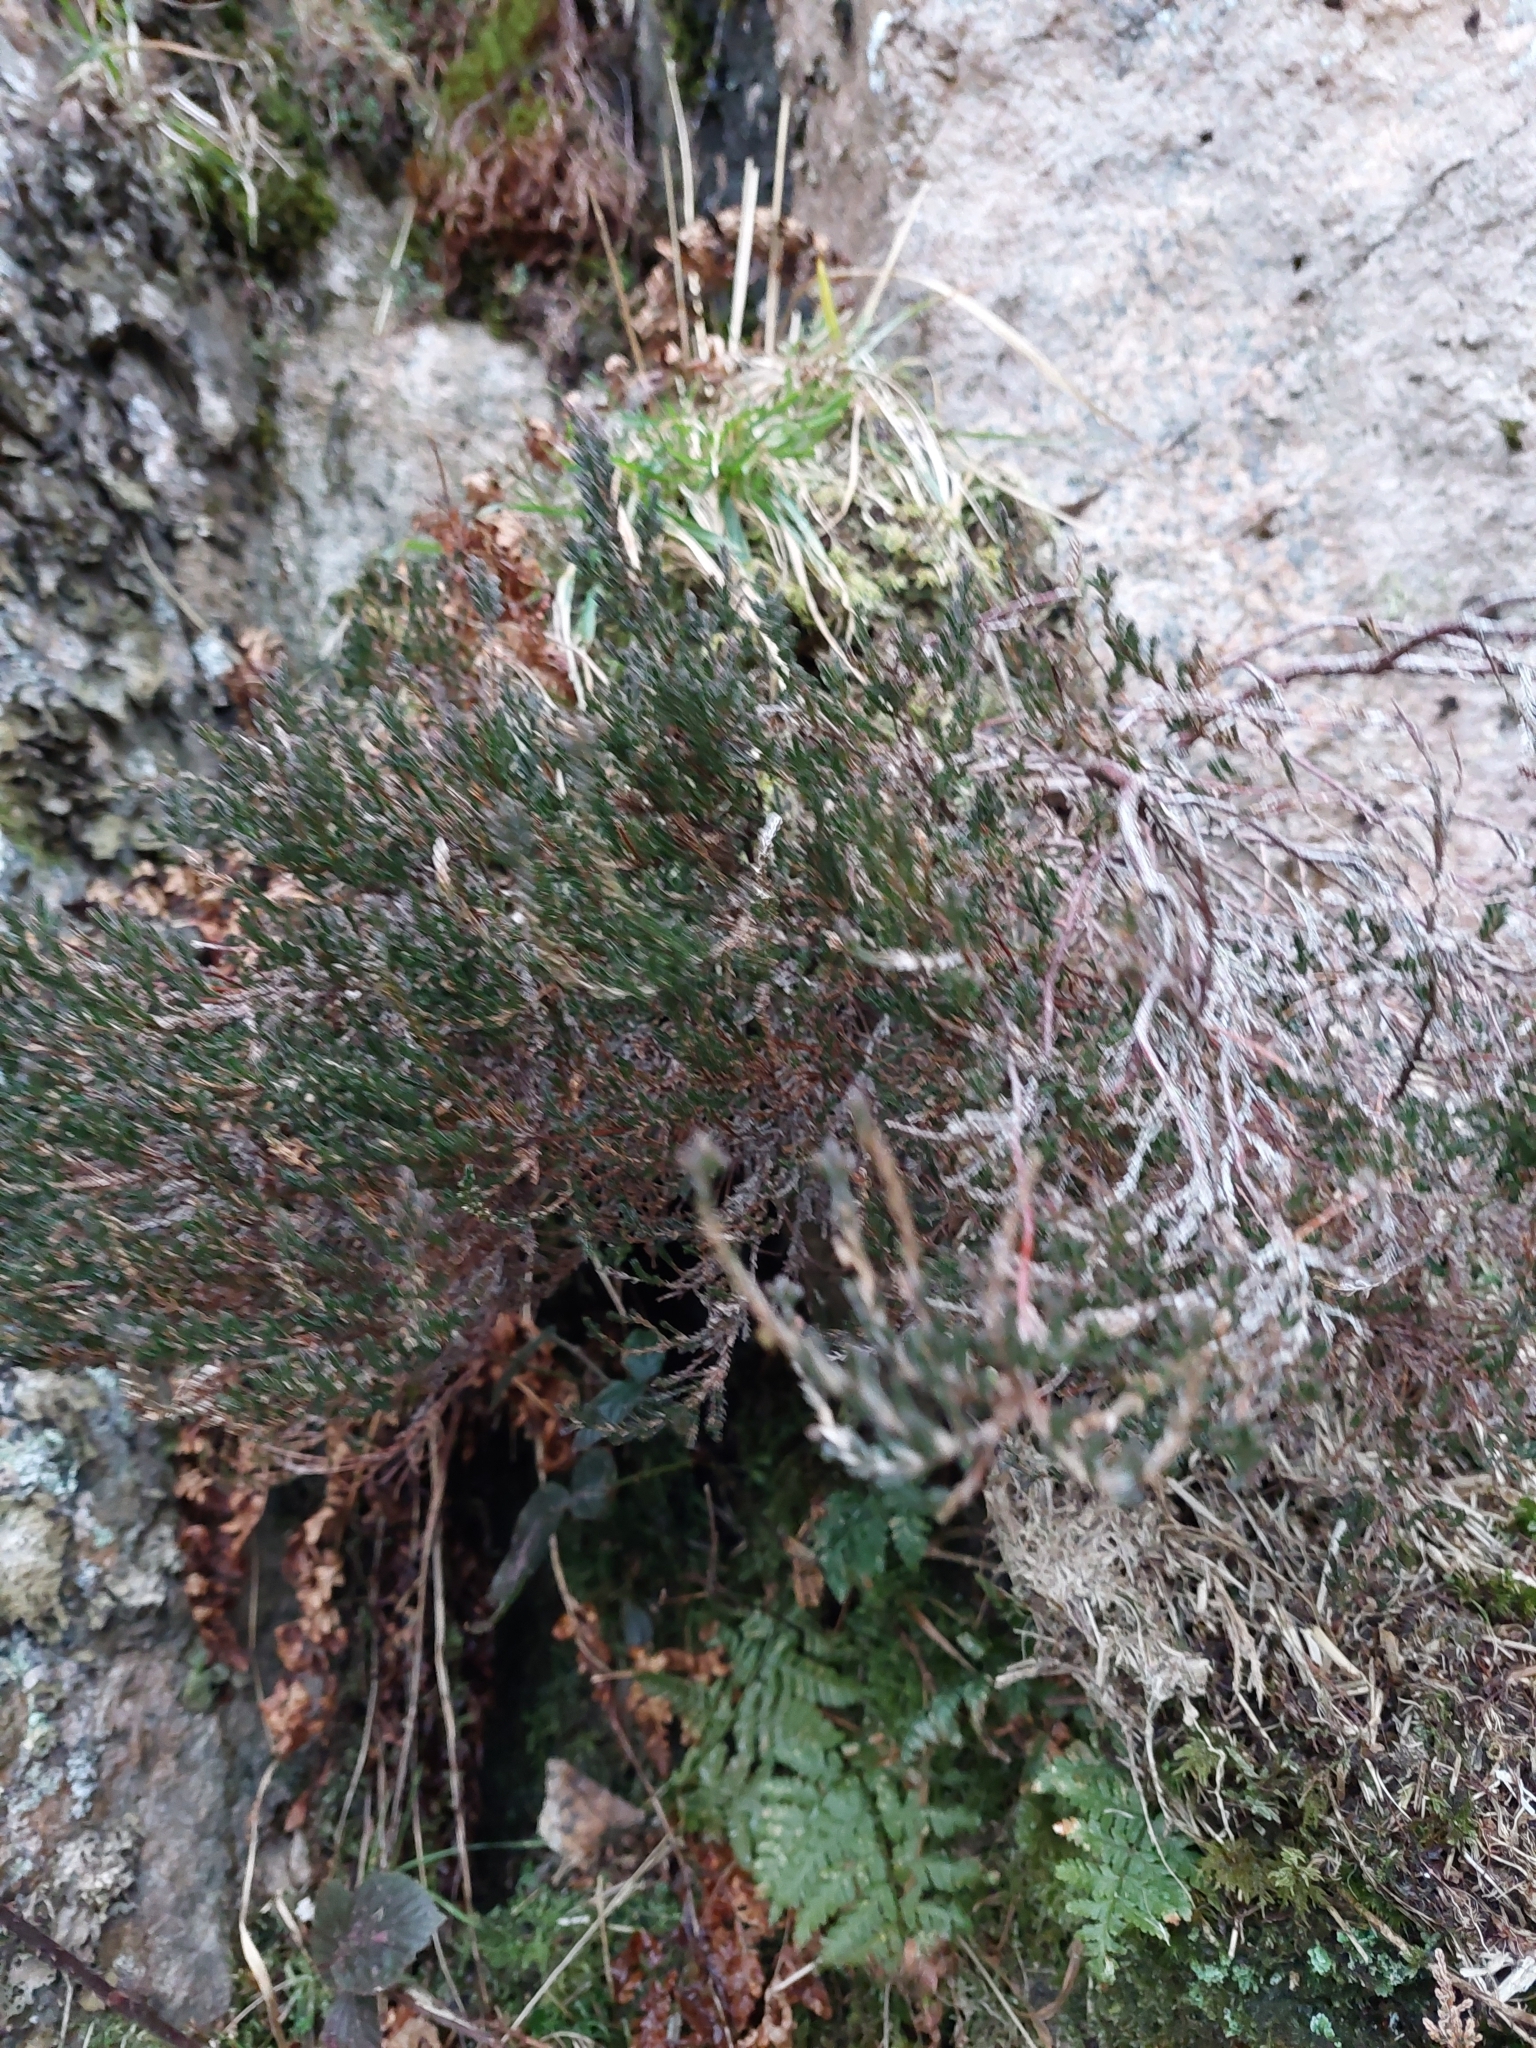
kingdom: Plantae
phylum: Tracheophyta
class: Magnoliopsida
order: Ericales
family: Ericaceae
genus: Calluna
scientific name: Calluna vulgaris
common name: Heather
